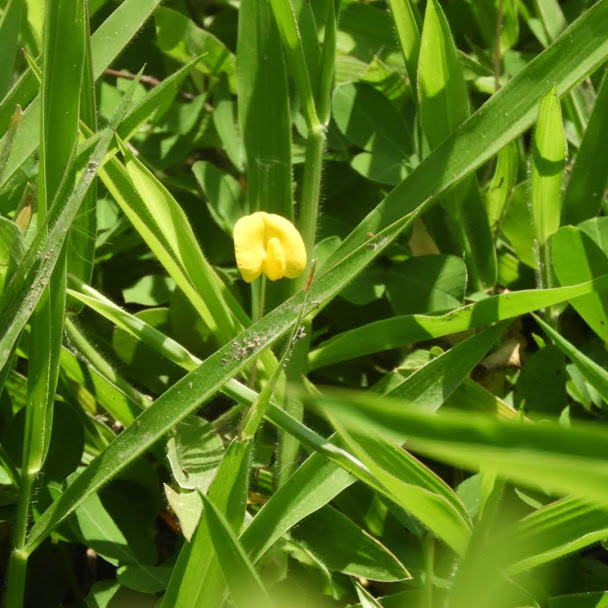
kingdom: Plantae
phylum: Tracheophyta
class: Magnoliopsida
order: Fabales
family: Fabaceae
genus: Arachis
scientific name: Arachis pintoi
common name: Pinto peanut
